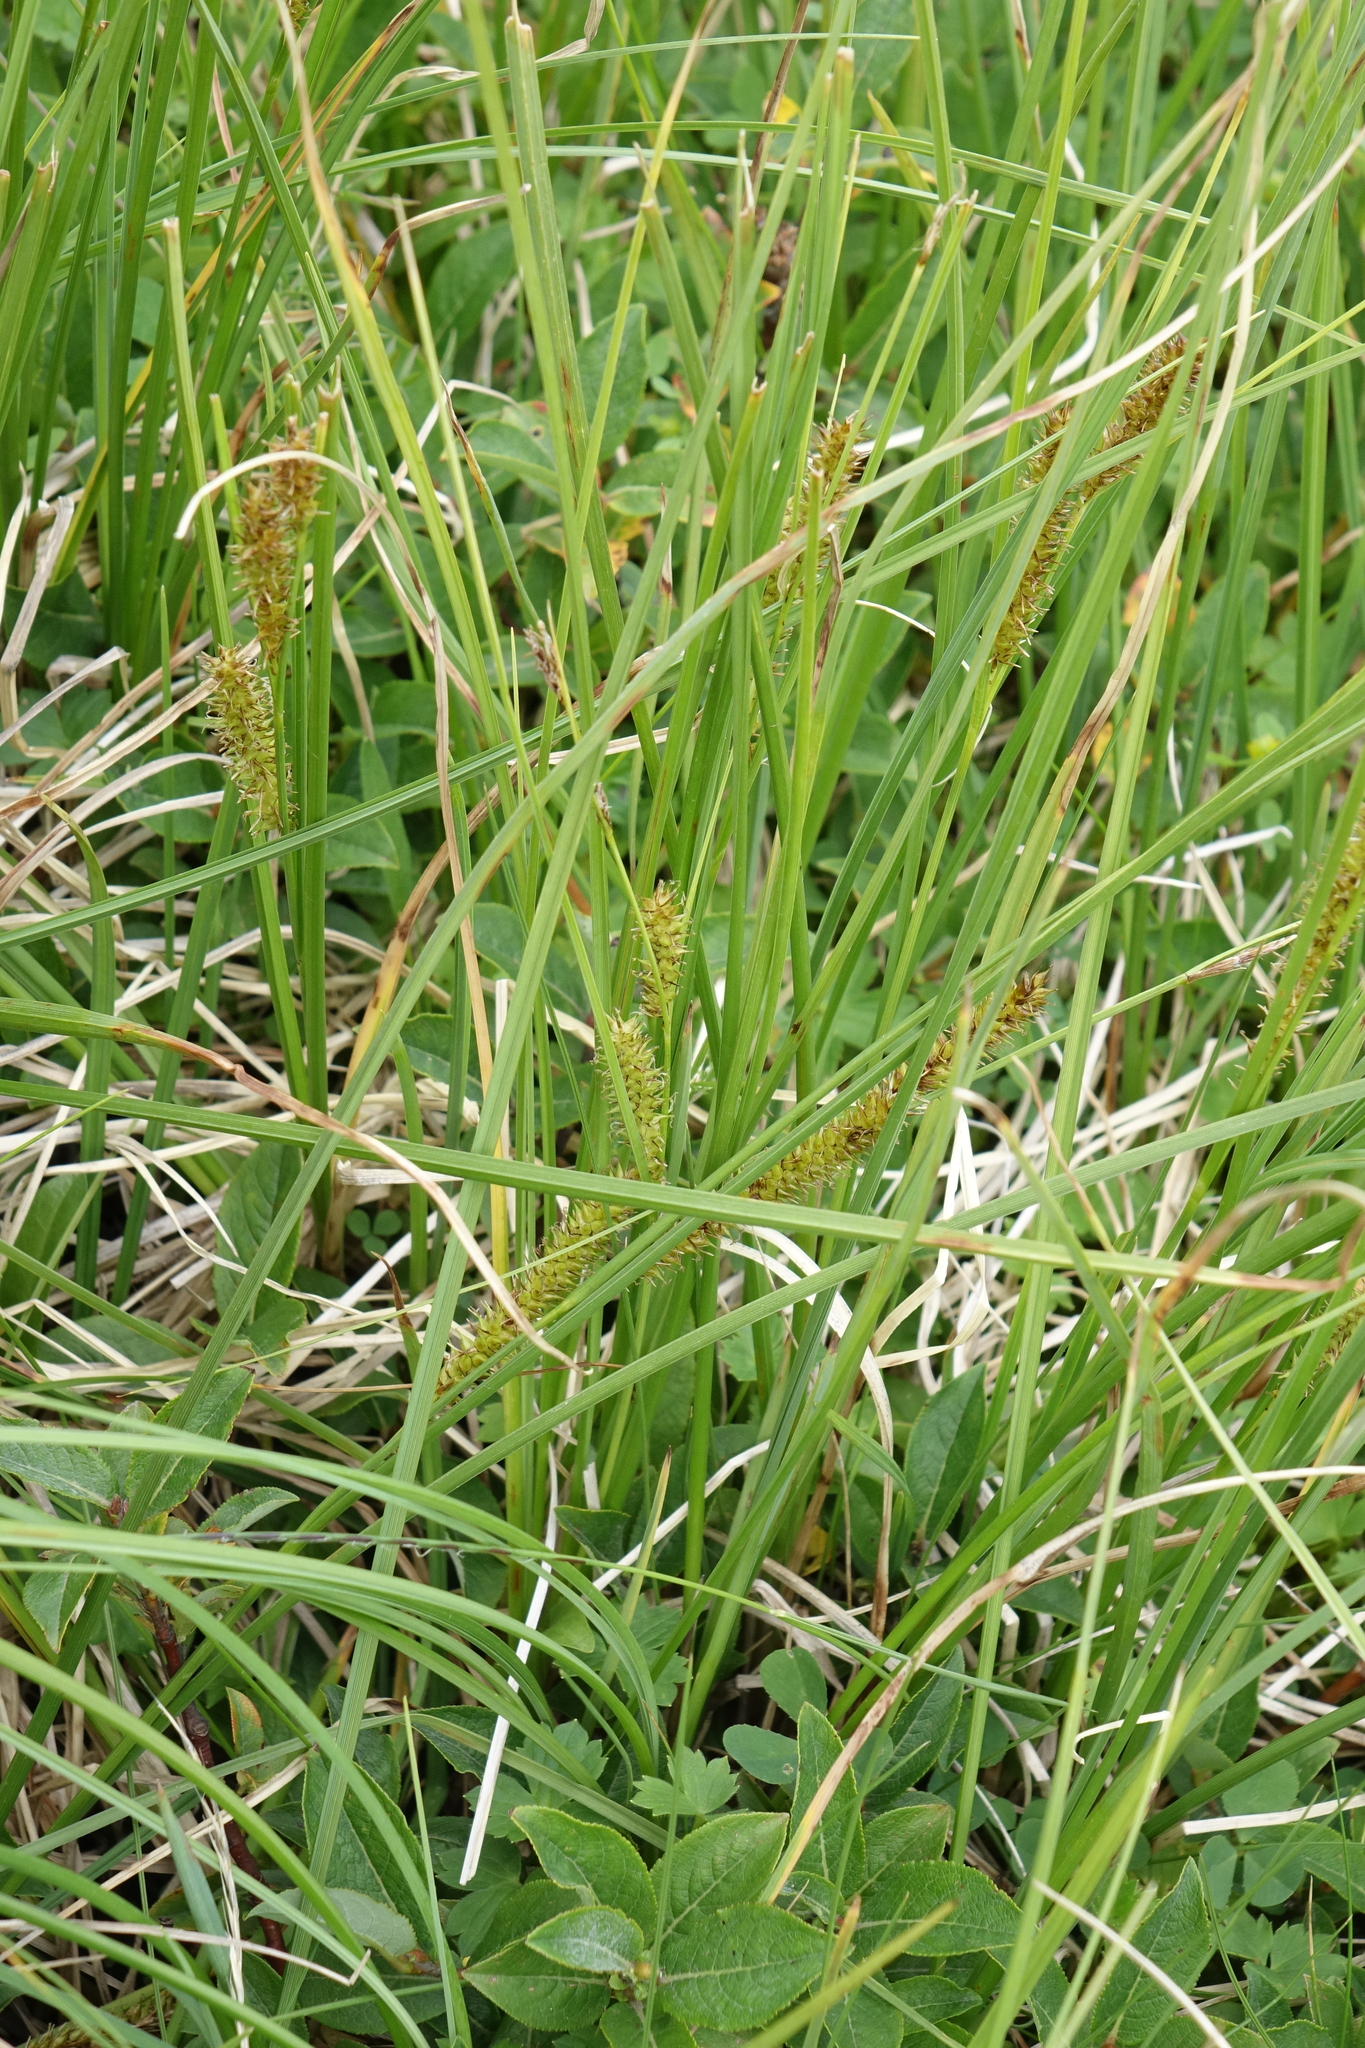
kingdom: Plantae
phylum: Tracheophyta
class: Liliopsida
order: Poales
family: Cyperaceae
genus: Carex
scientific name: Carex rostrata
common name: Bottle sedge
